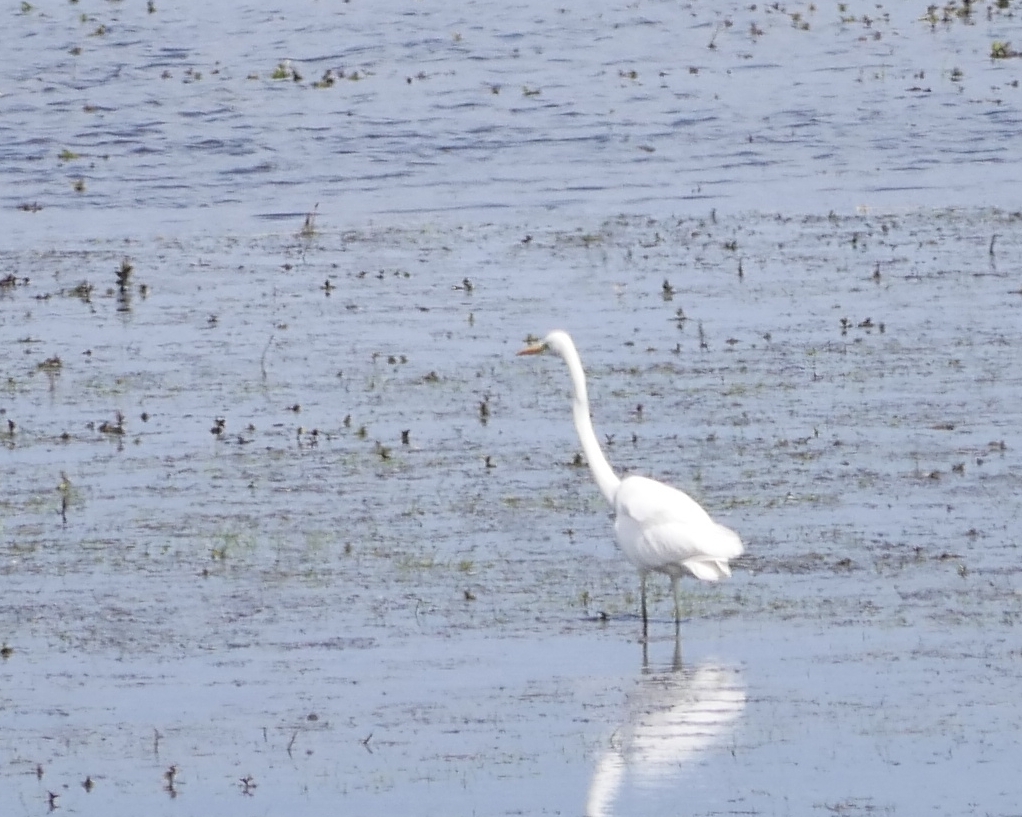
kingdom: Animalia
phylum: Chordata
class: Aves
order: Pelecaniformes
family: Ardeidae
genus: Ardea
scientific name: Ardea alba
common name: Great egret
